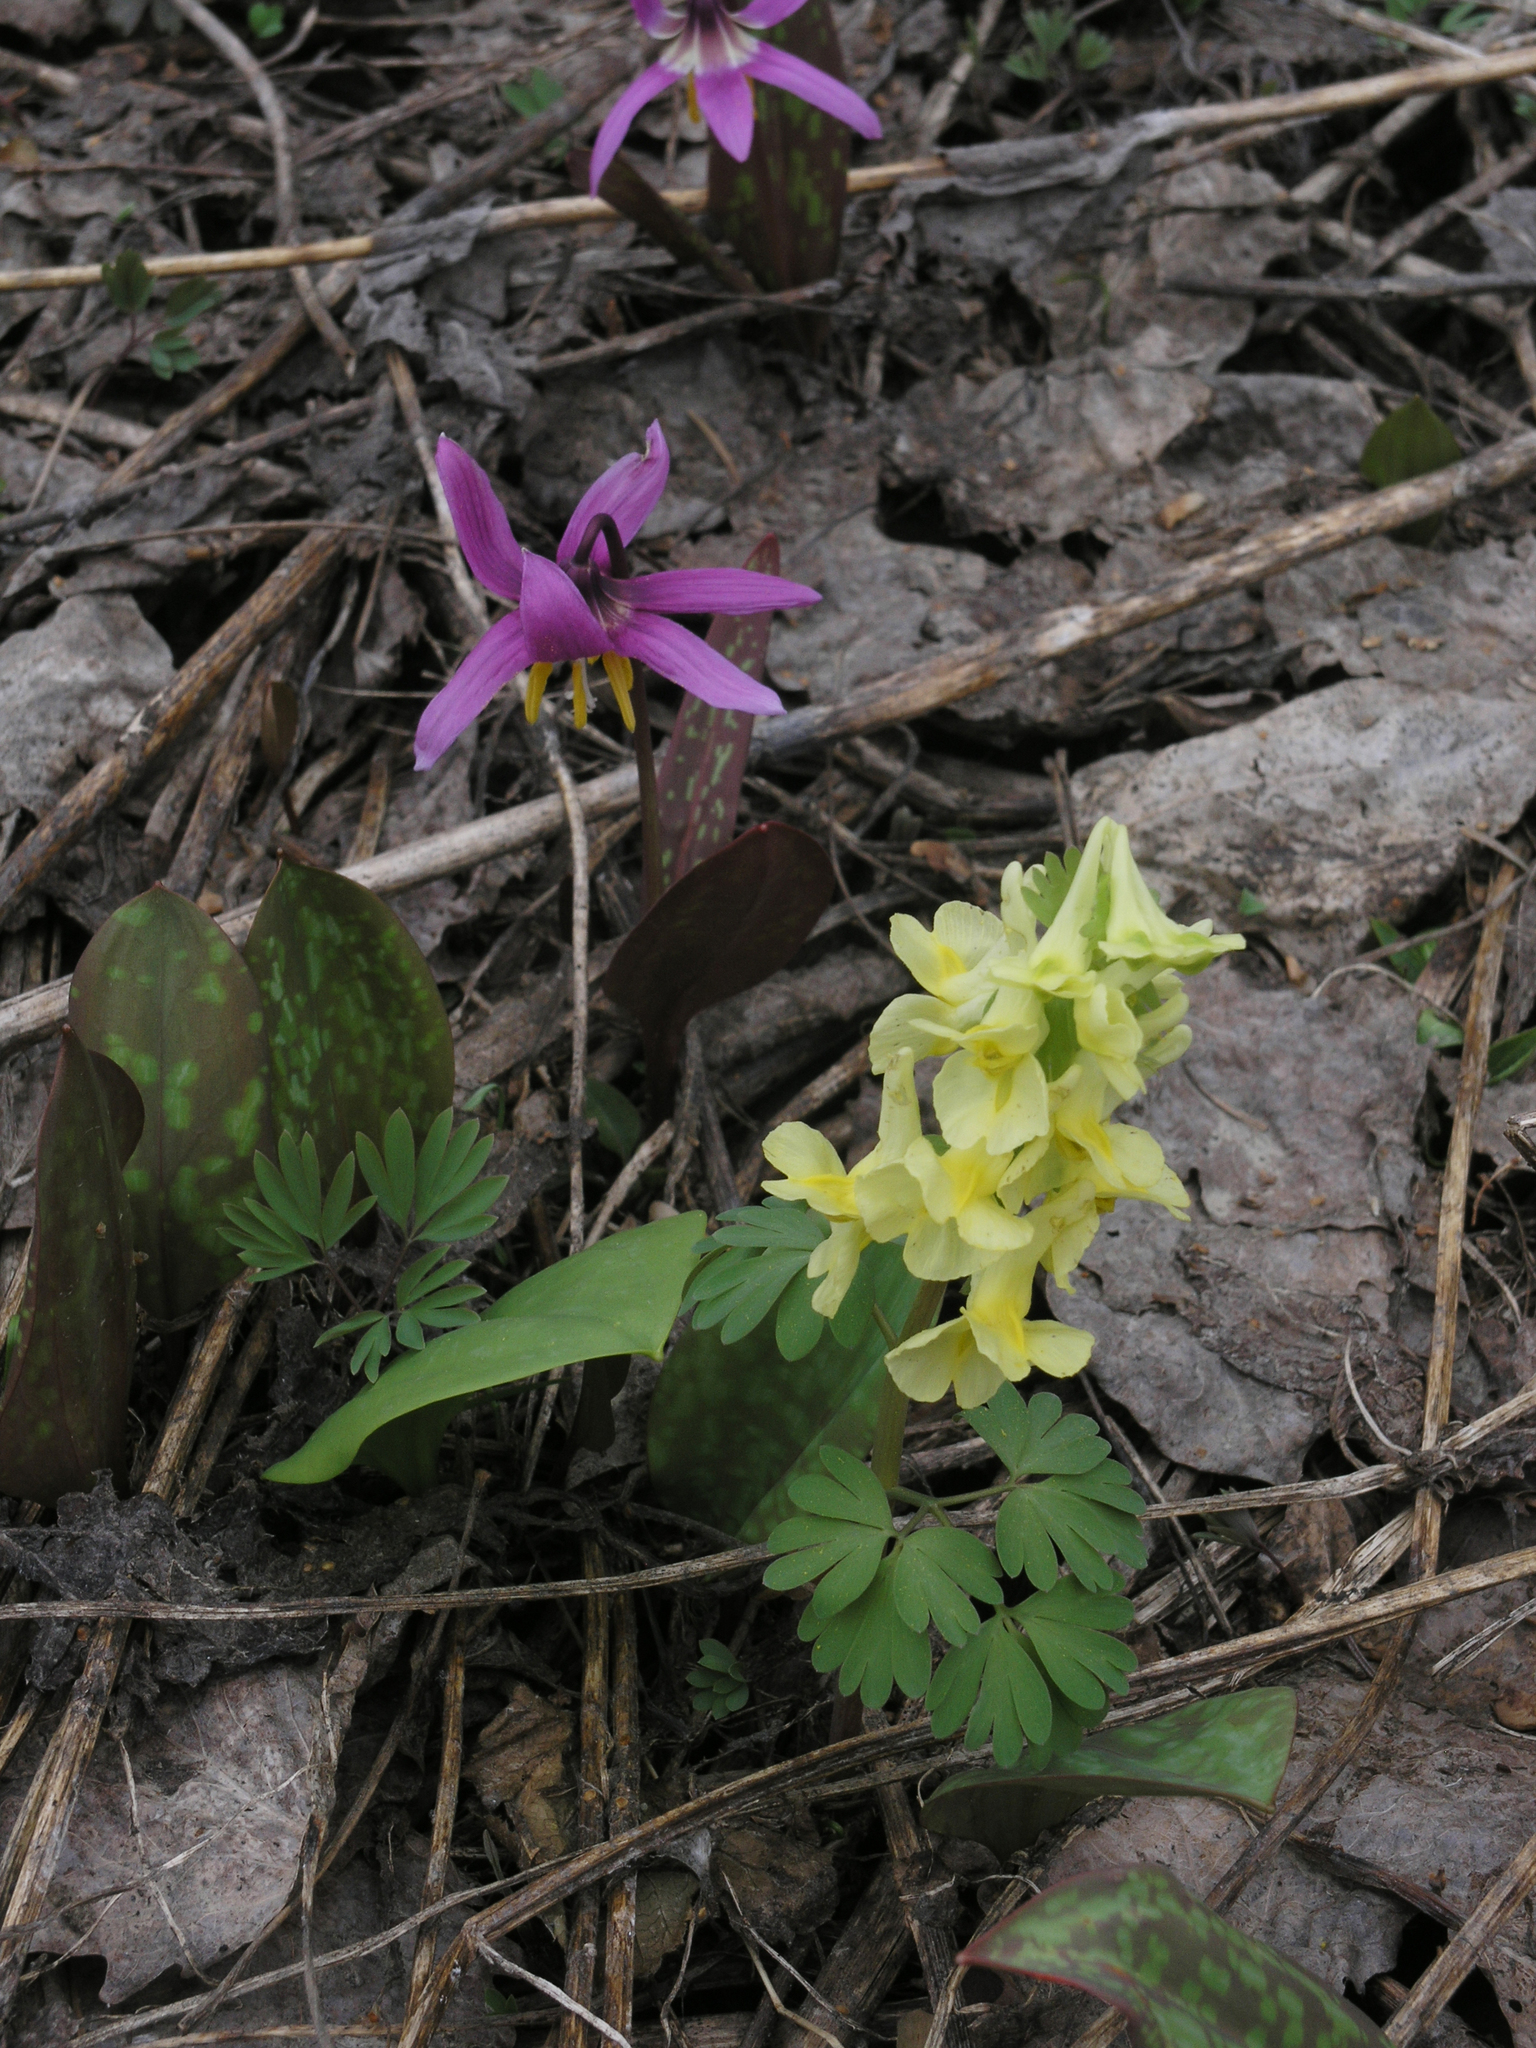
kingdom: Plantae
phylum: Tracheophyta
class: Magnoliopsida
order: Ranunculales
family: Papaveraceae
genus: Corydalis
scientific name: Corydalis bracteata
